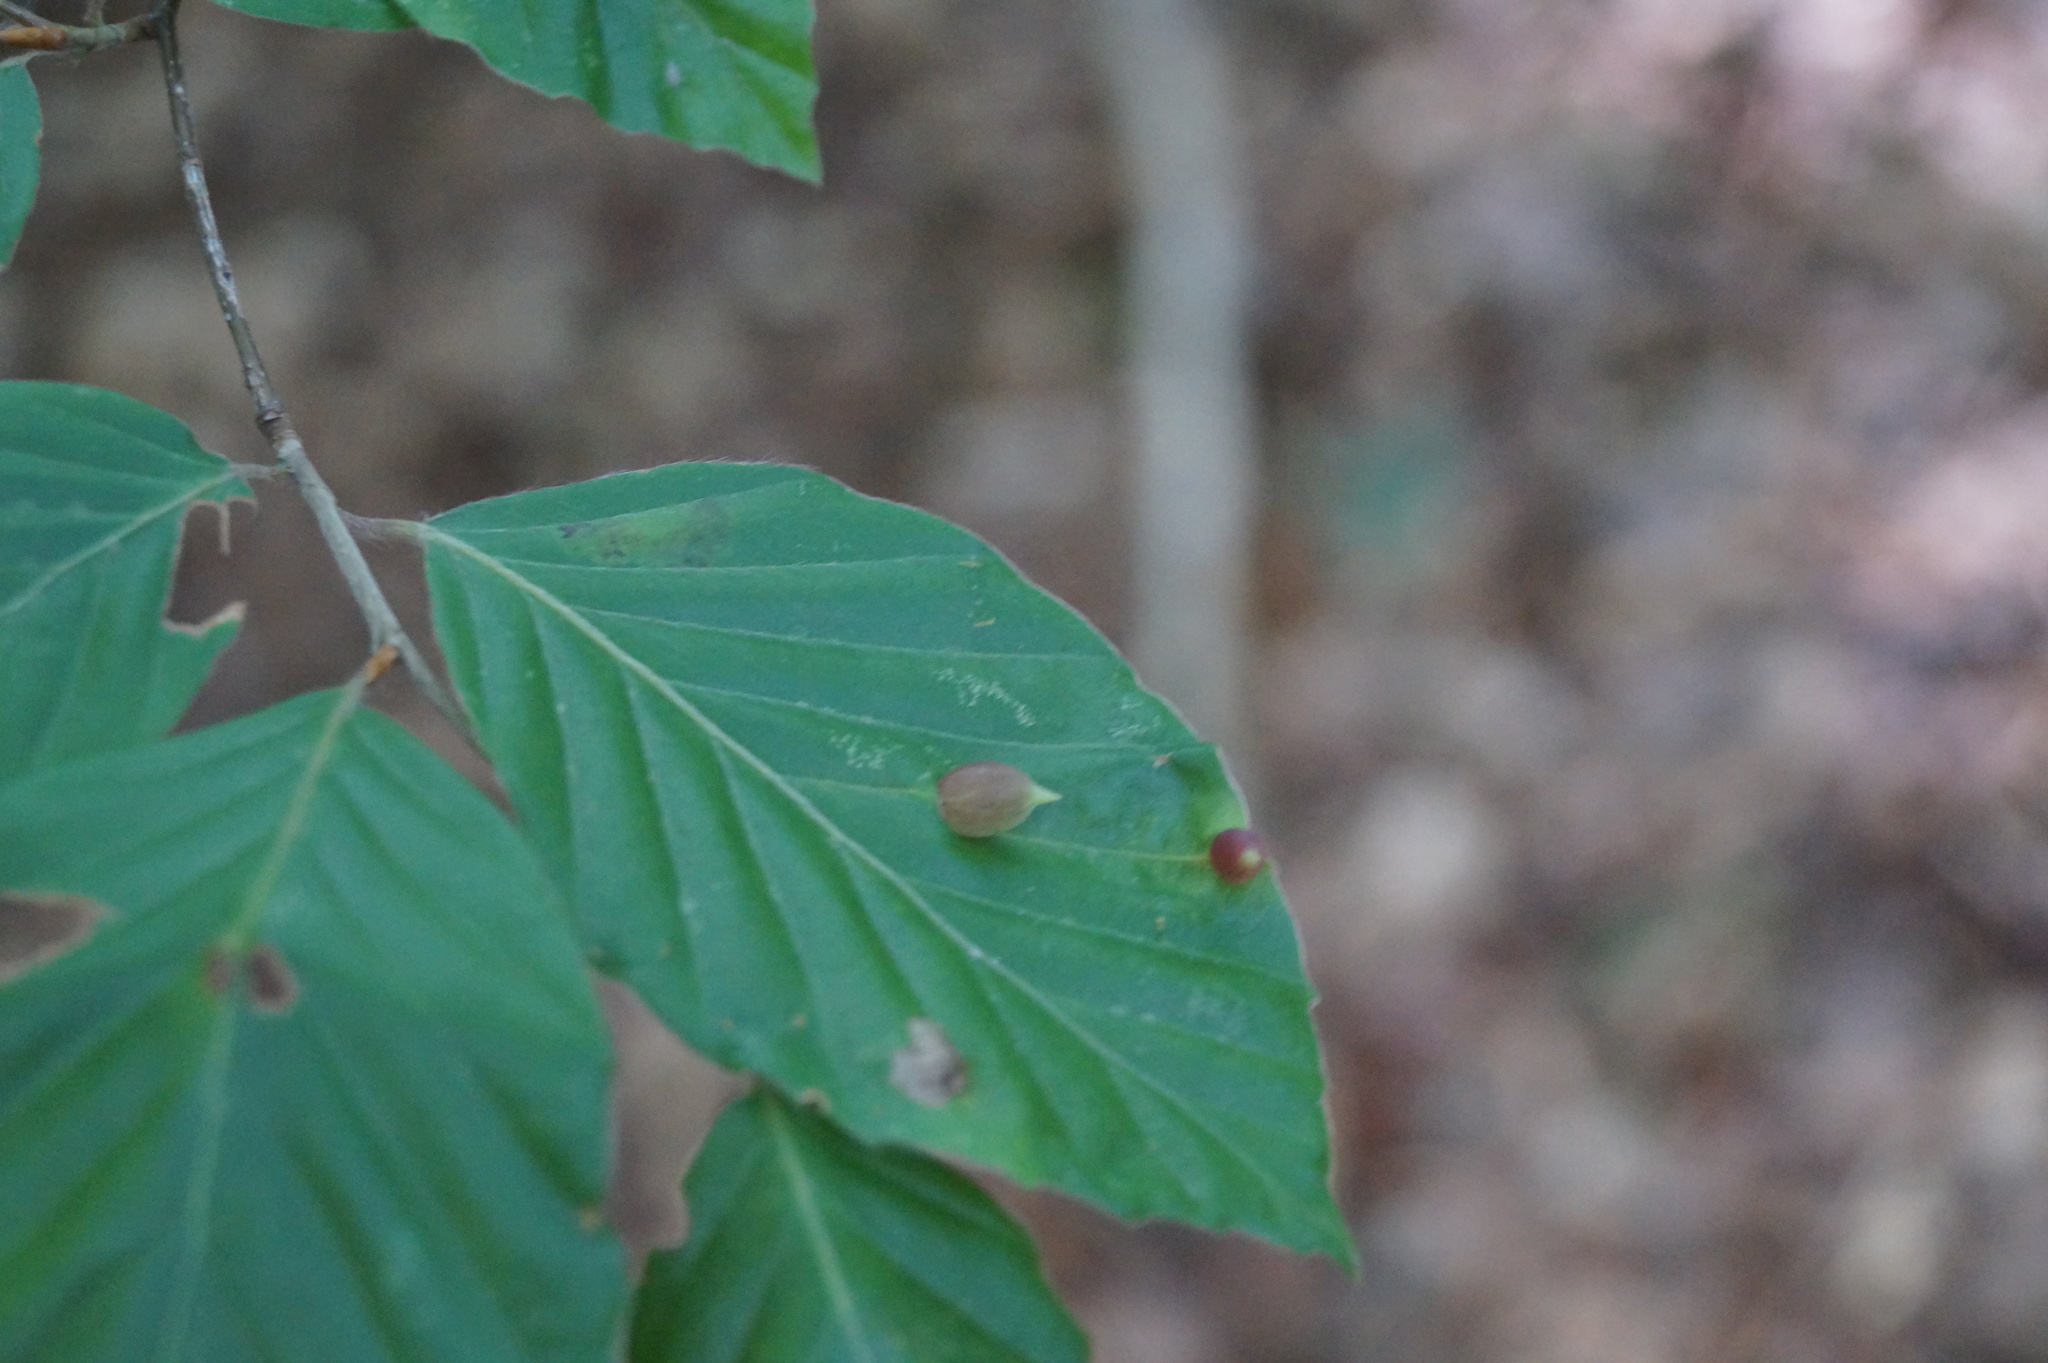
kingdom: Animalia
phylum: Arthropoda
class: Insecta
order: Diptera
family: Cecidomyiidae
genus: Mikiola
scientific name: Mikiola fagi
